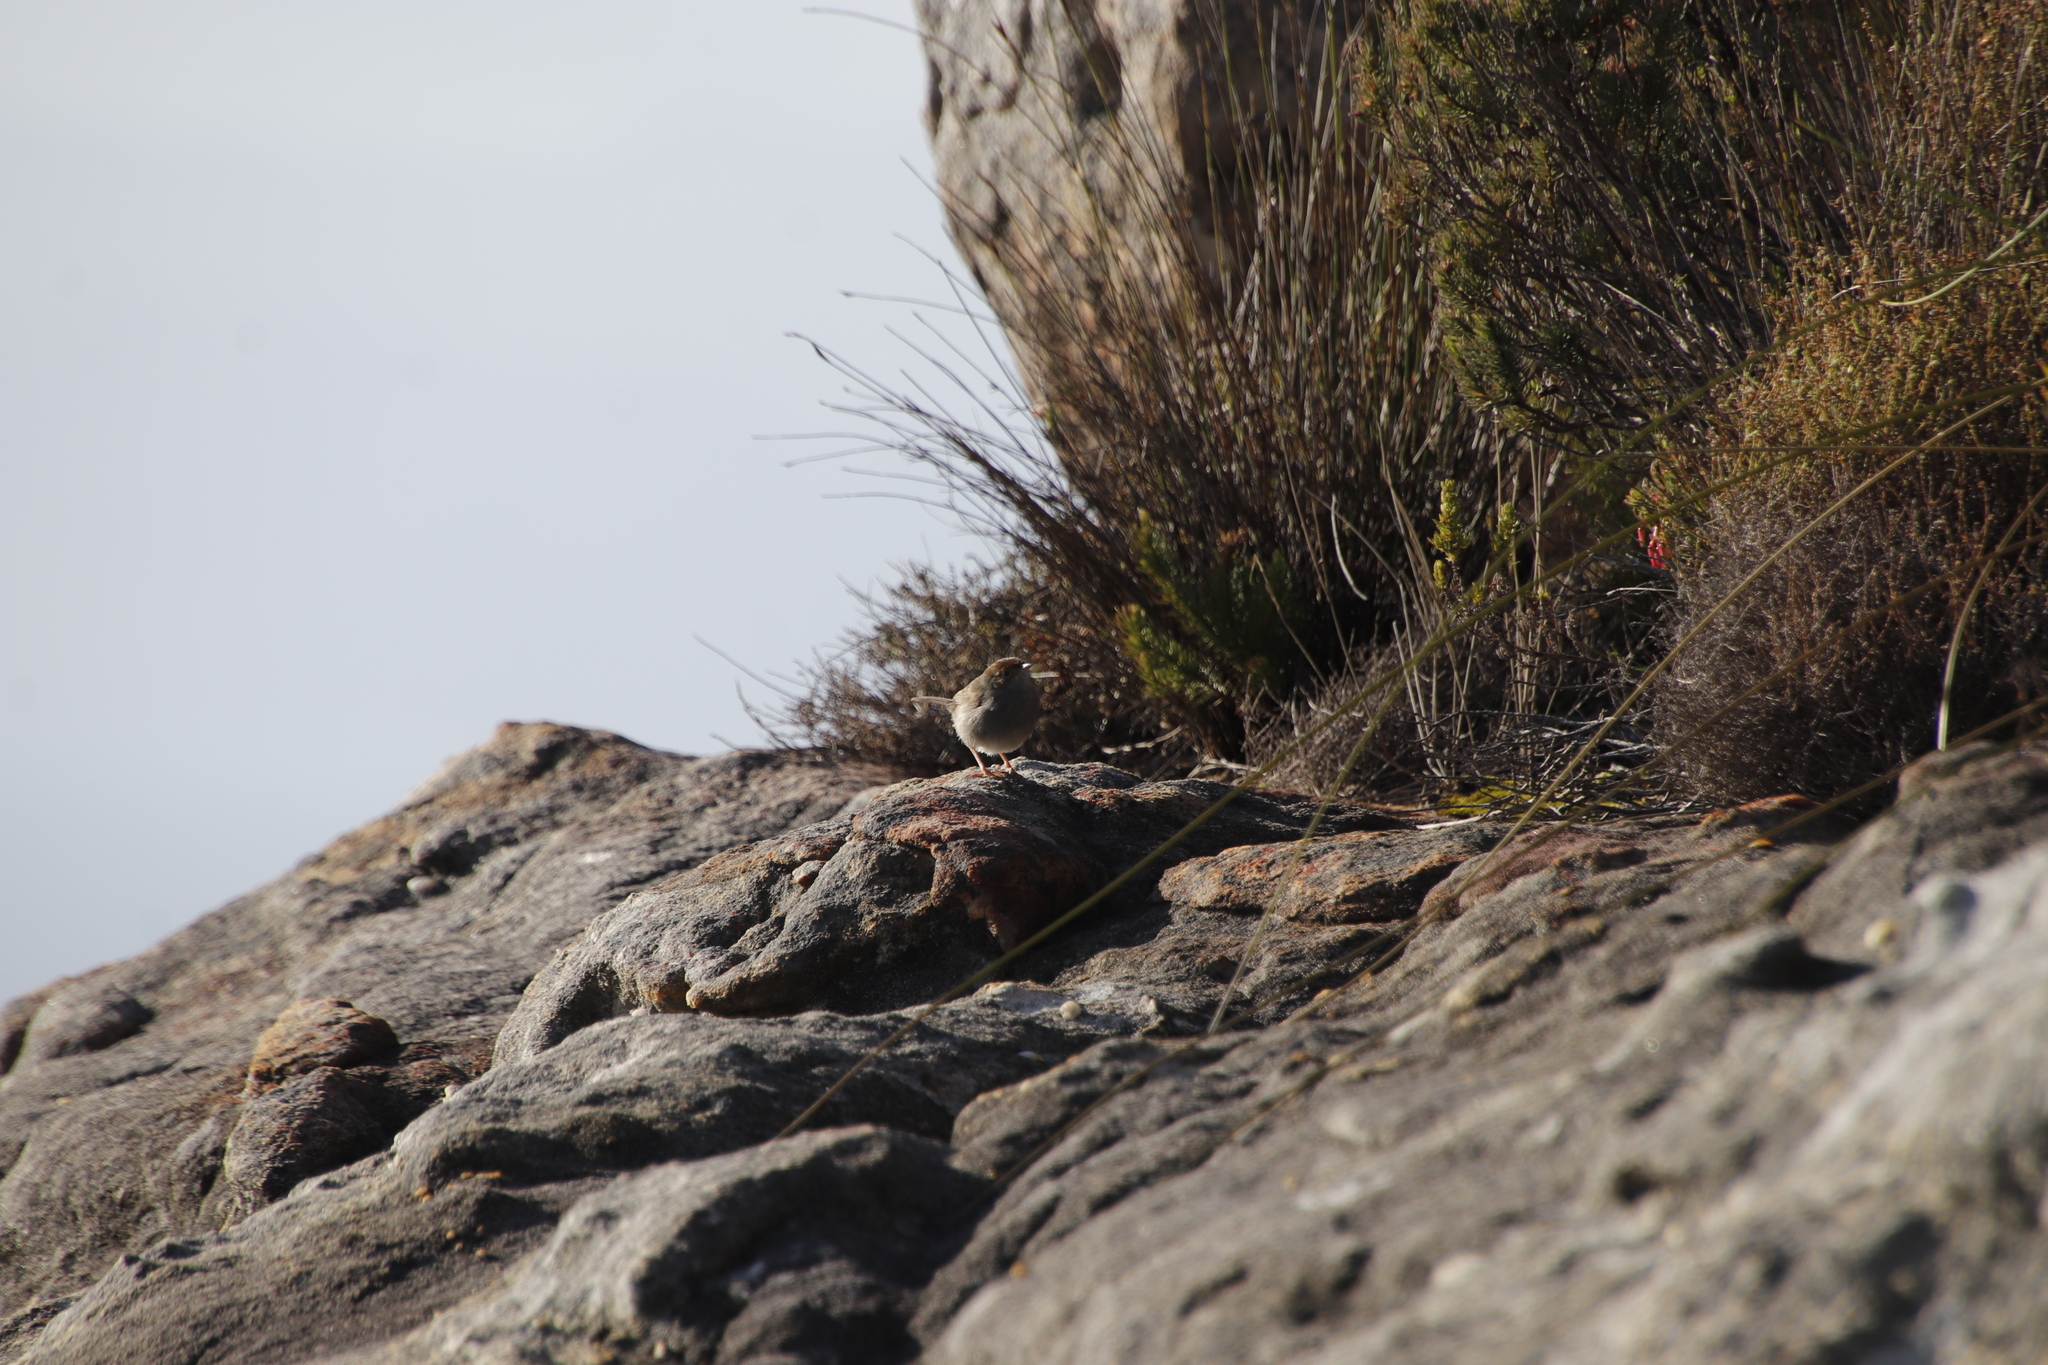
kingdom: Animalia
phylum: Chordata
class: Aves
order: Passeriformes
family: Cisticolidae
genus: Cisticola
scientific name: Cisticola fulvicapilla
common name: Neddicky
